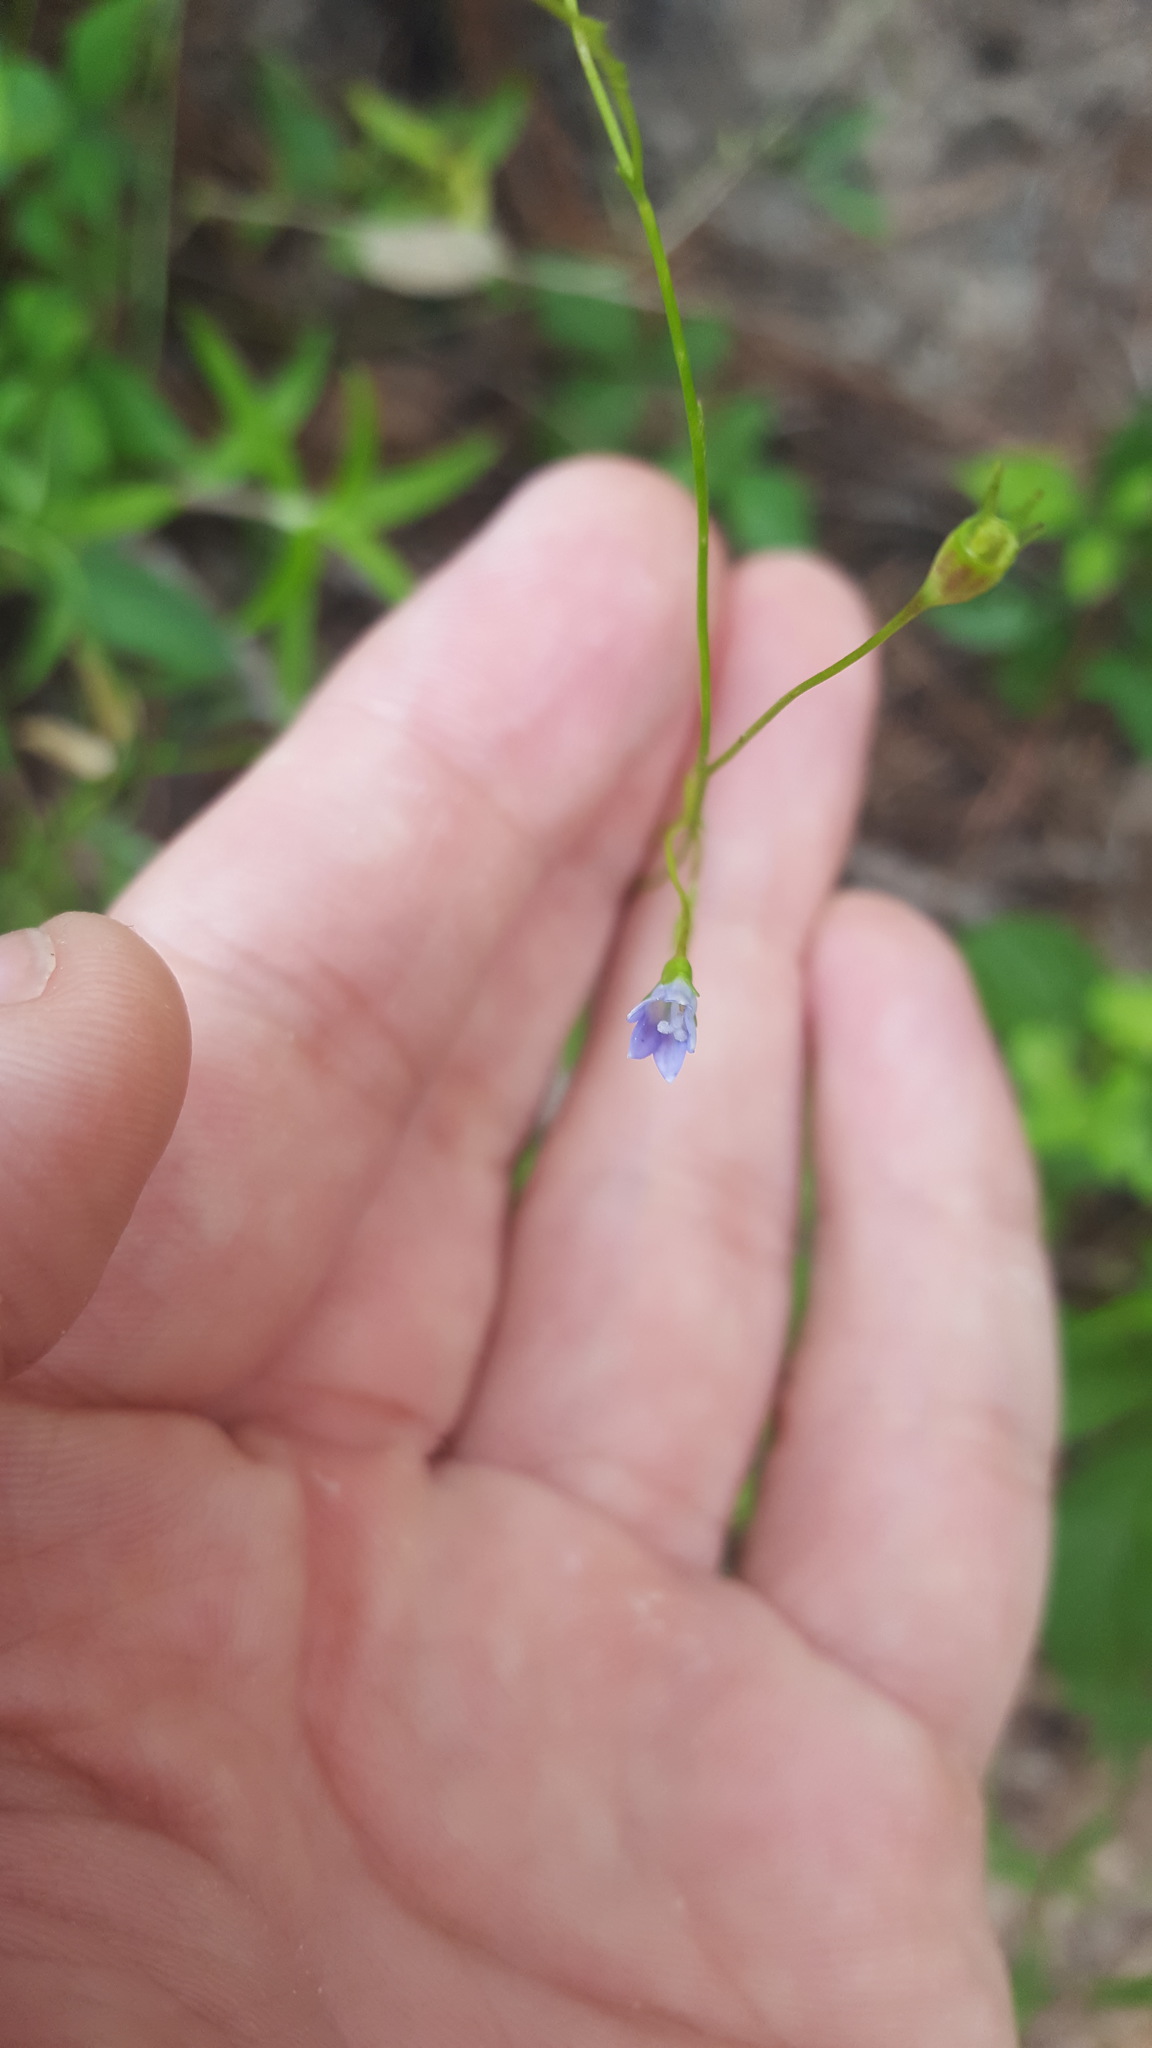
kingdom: Plantae
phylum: Tracheophyta
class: Magnoliopsida
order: Asterales
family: Campanulaceae
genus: Wahlenbergia
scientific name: Wahlenbergia marginata
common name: Southern rockbell
